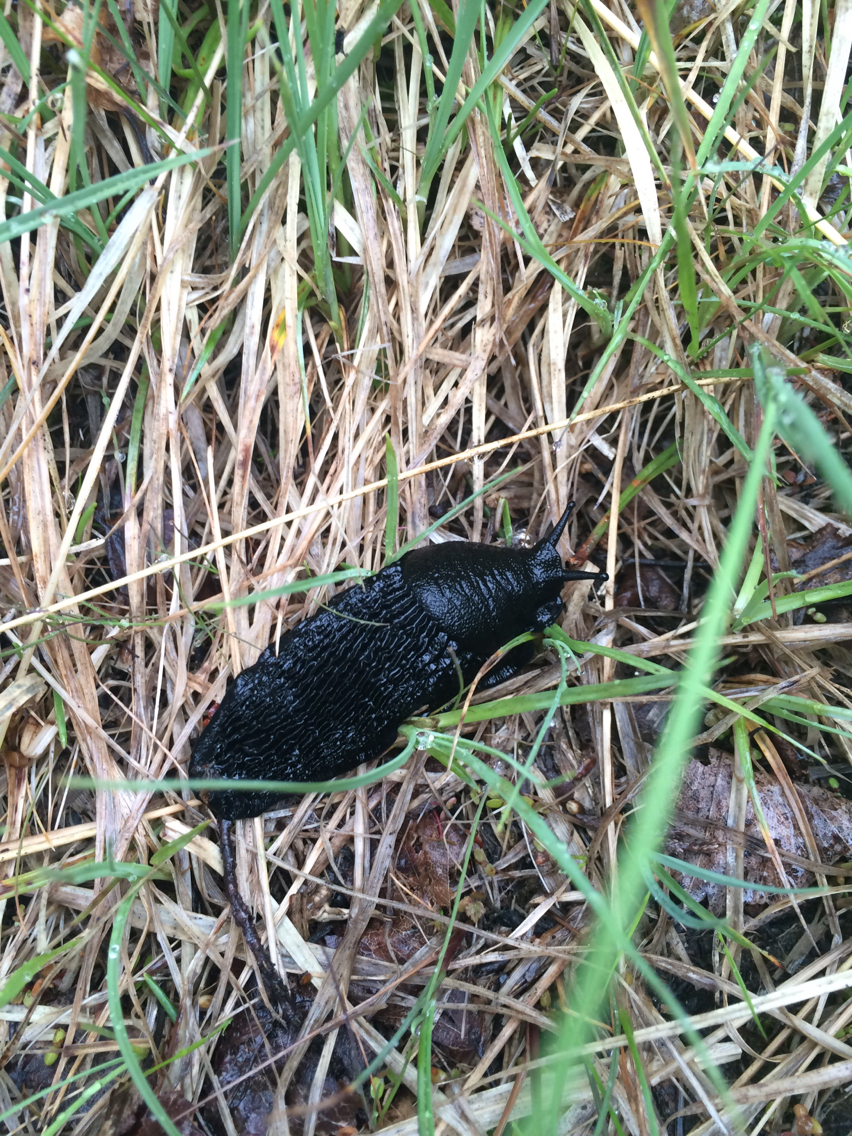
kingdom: Animalia
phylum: Mollusca
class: Gastropoda
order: Stylommatophora
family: Arionidae
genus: Arion
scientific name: Arion ater
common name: Black arion
